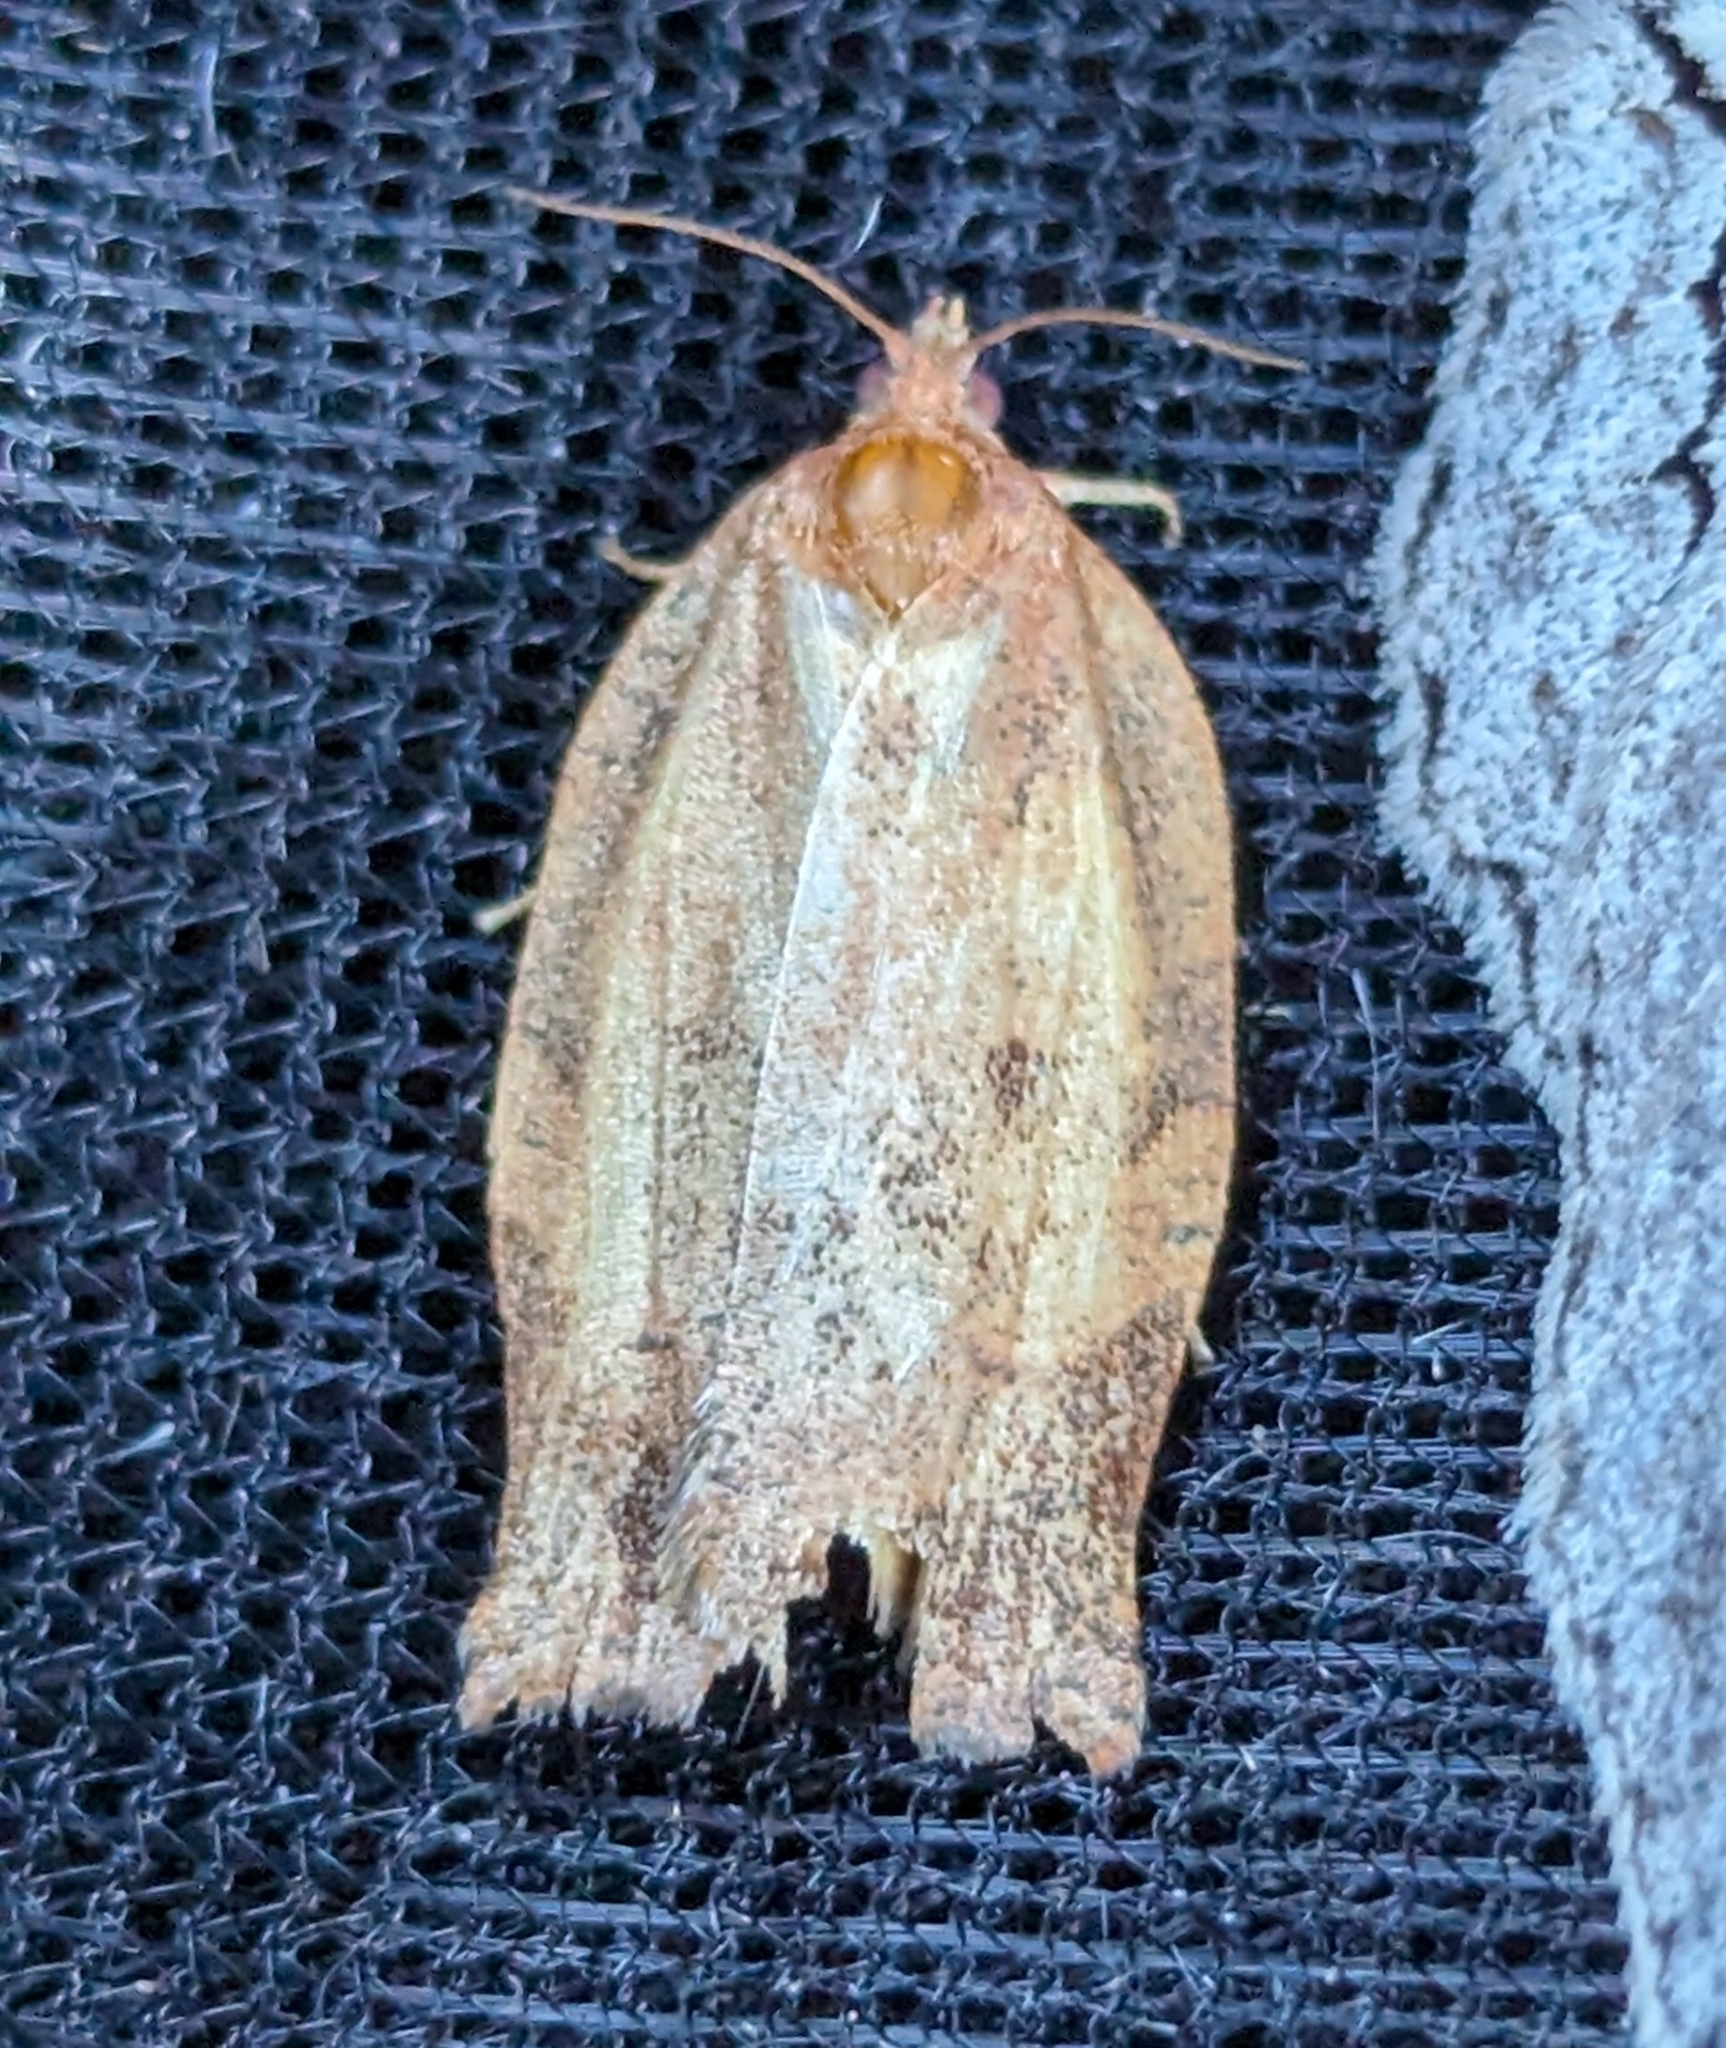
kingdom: Animalia
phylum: Arthropoda
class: Insecta
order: Lepidoptera
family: Tortricidae
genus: Choristoneura
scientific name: Choristoneura rosaceana
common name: Oblique-banded leafroller moth
